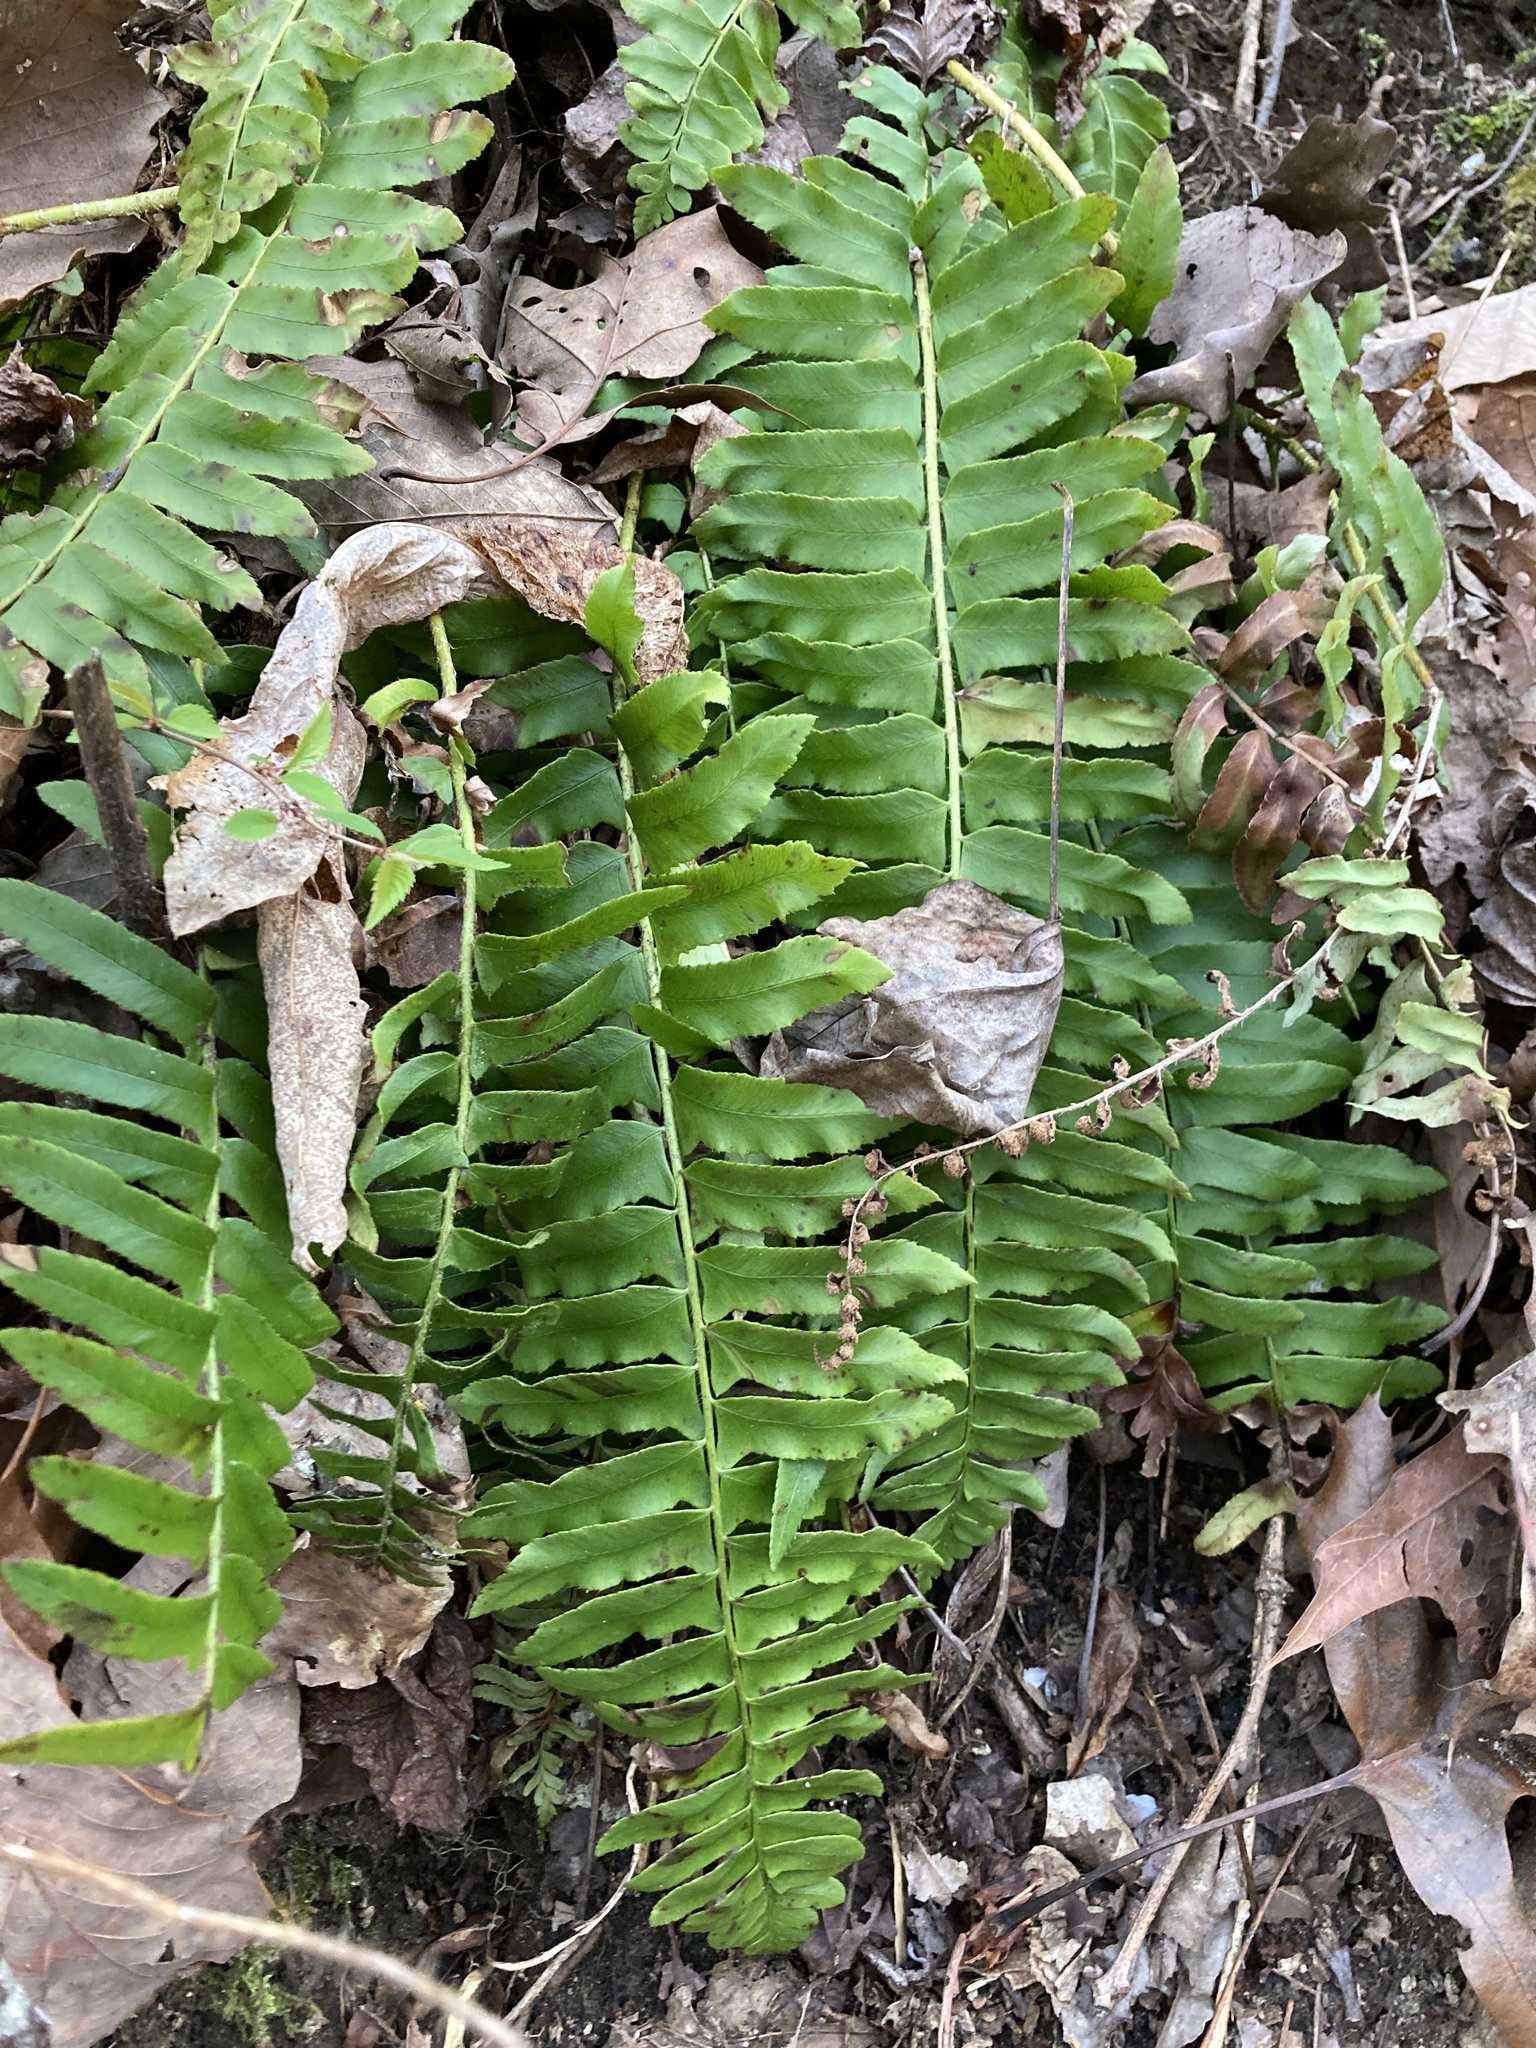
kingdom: Plantae
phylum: Tracheophyta
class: Polypodiopsida
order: Polypodiales
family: Dryopteridaceae
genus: Polystichum
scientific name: Polystichum acrostichoides
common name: Christmas fern
